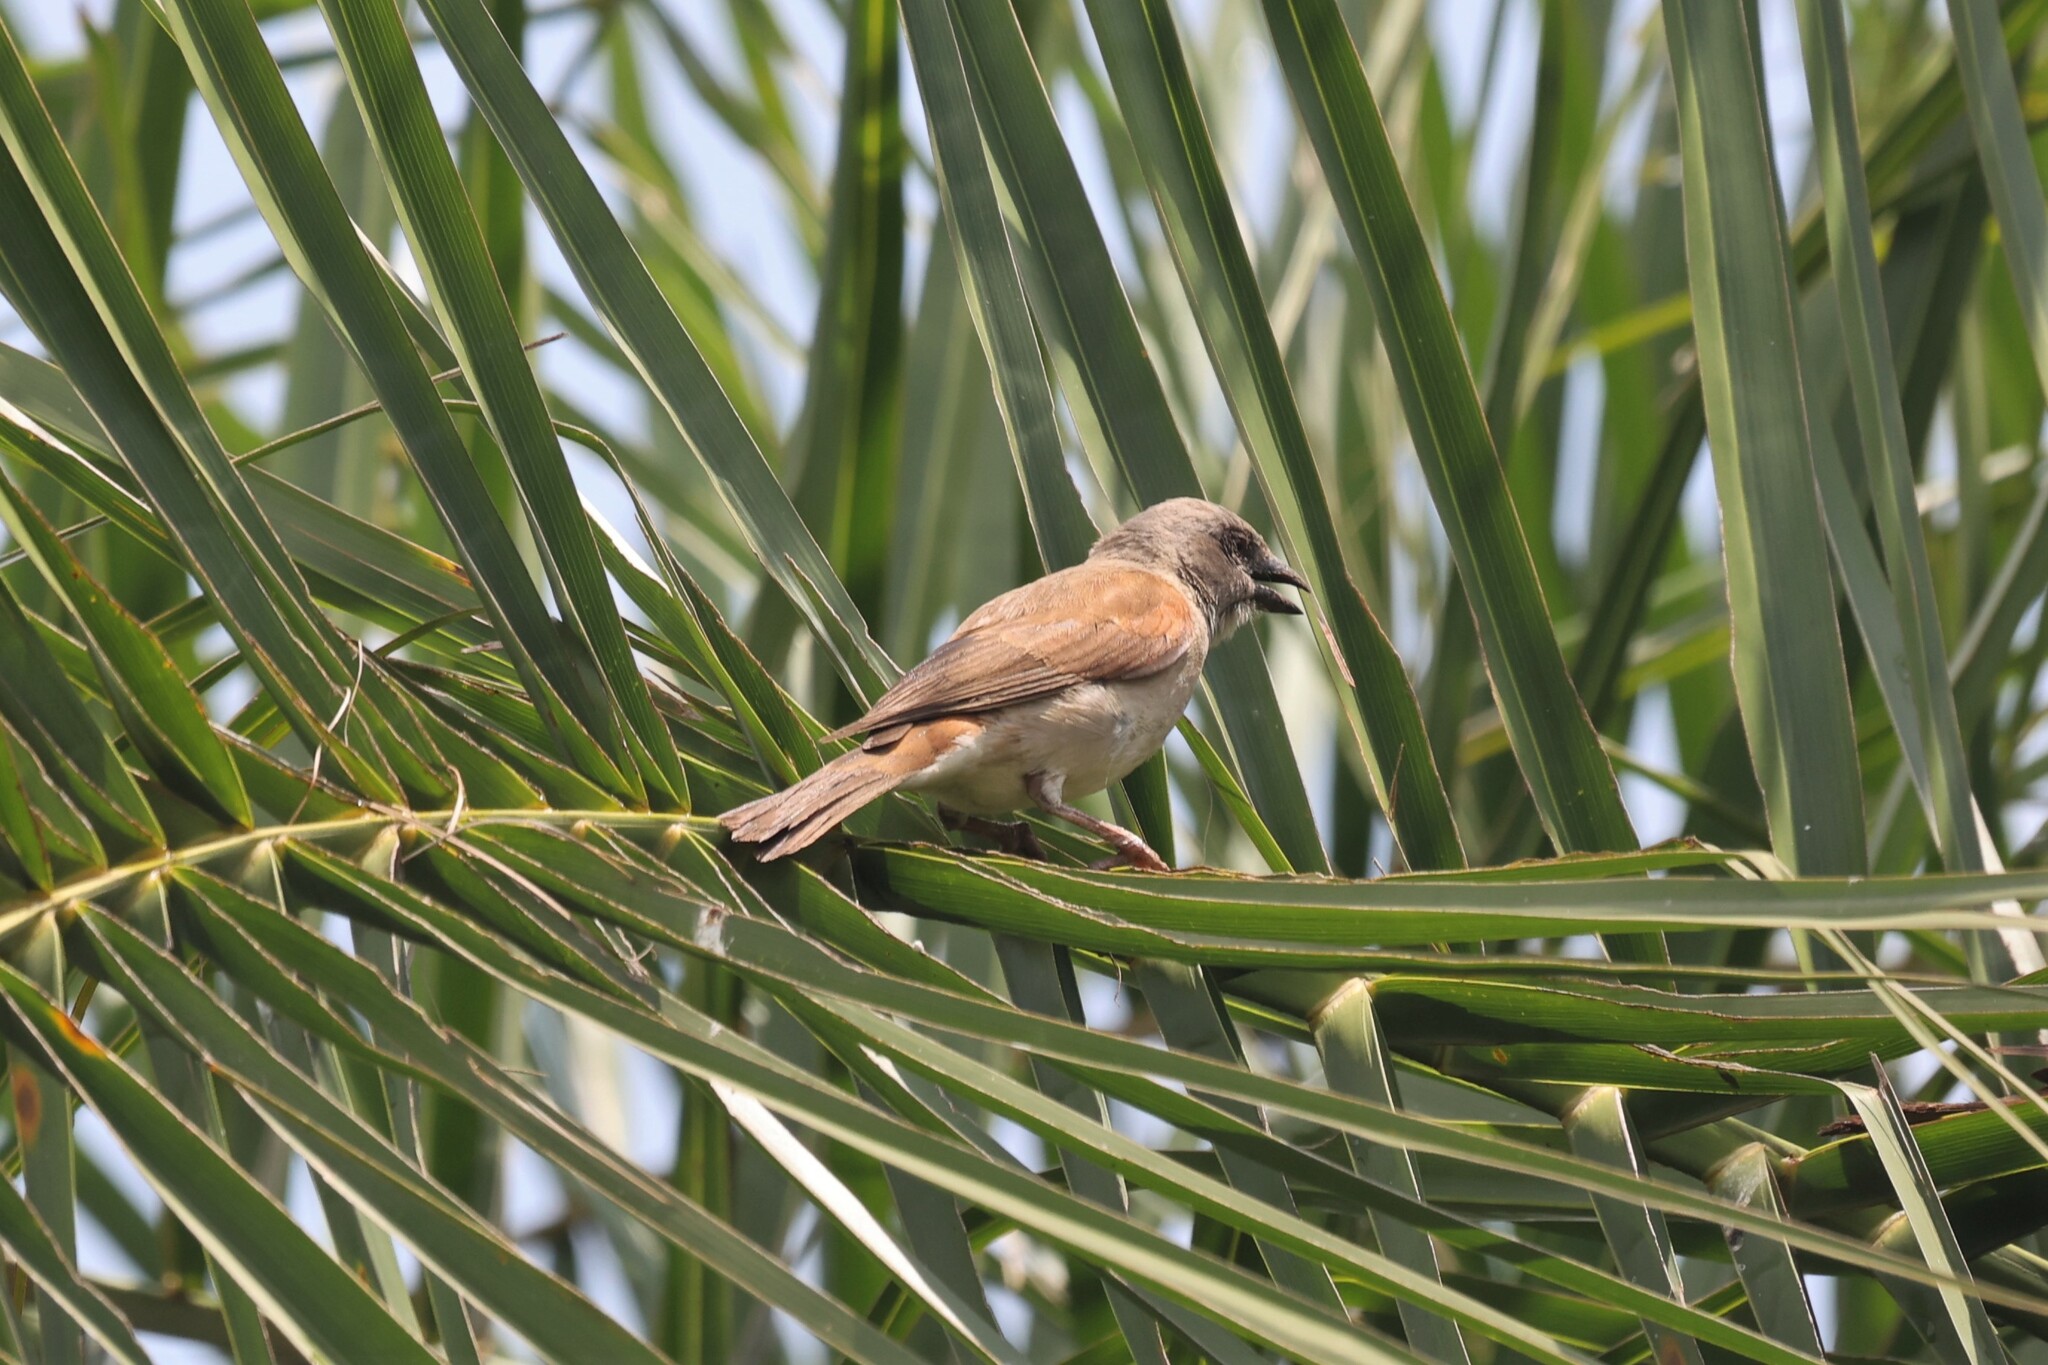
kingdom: Animalia
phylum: Chordata
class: Aves
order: Passeriformes
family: Passeridae
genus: Passer
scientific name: Passer griseus
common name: Northern grey-headed sparrow
